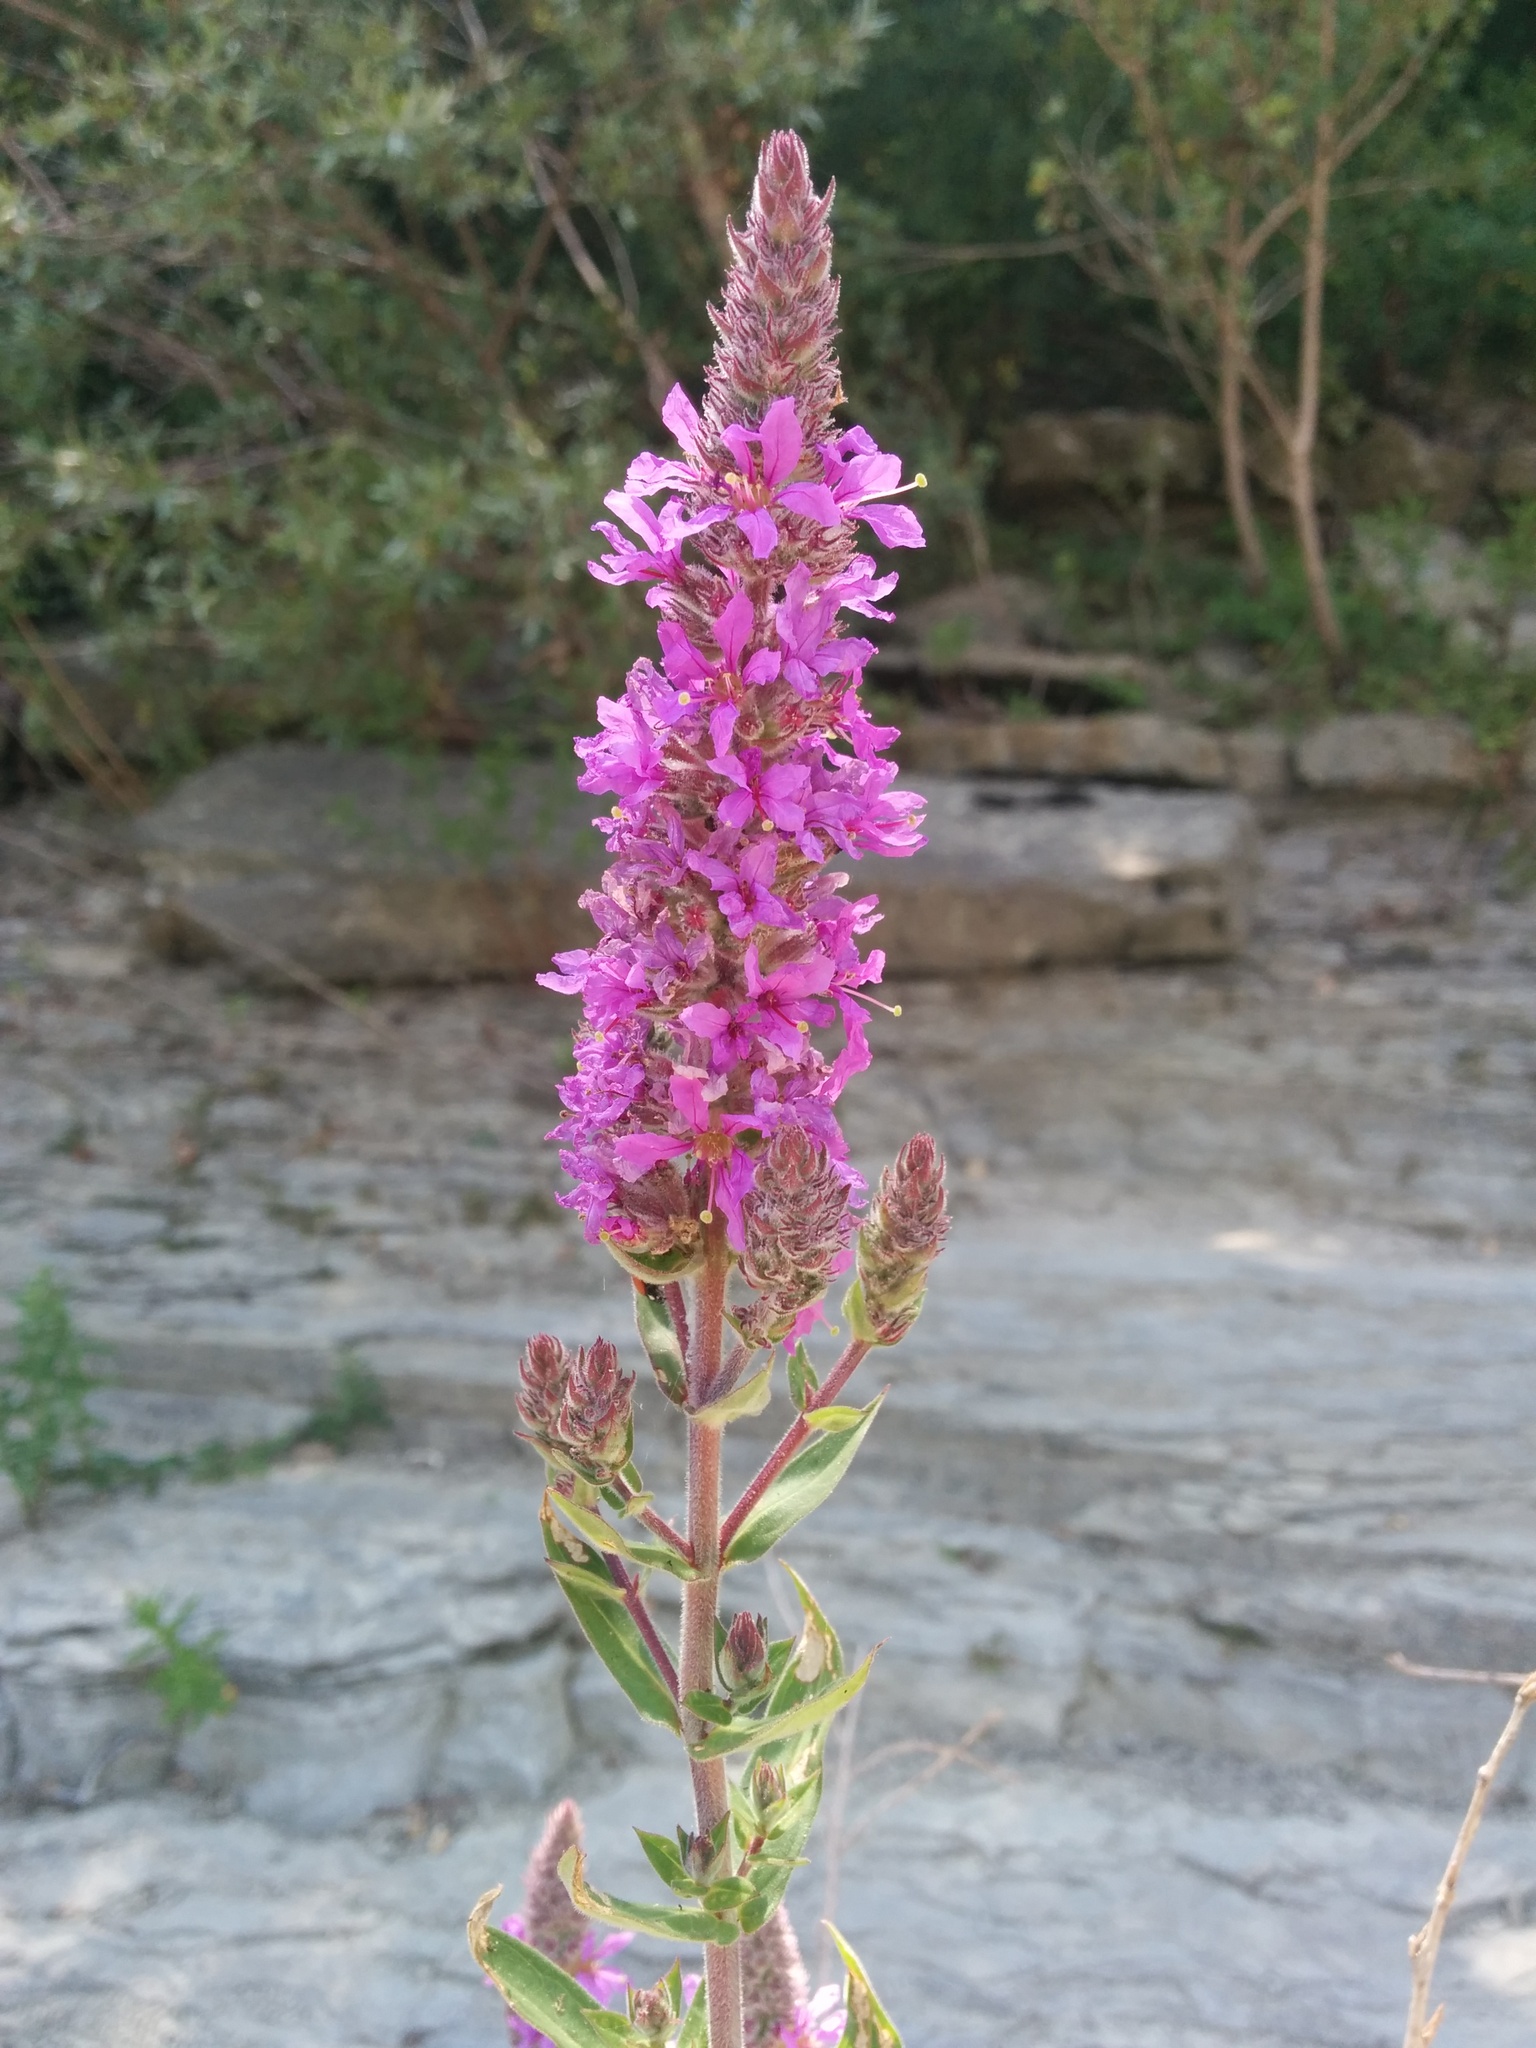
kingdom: Plantae
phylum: Tracheophyta
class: Magnoliopsida
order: Myrtales
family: Lythraceae
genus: Lythrum
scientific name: Lythrum salicaria
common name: Purple loosestrife
